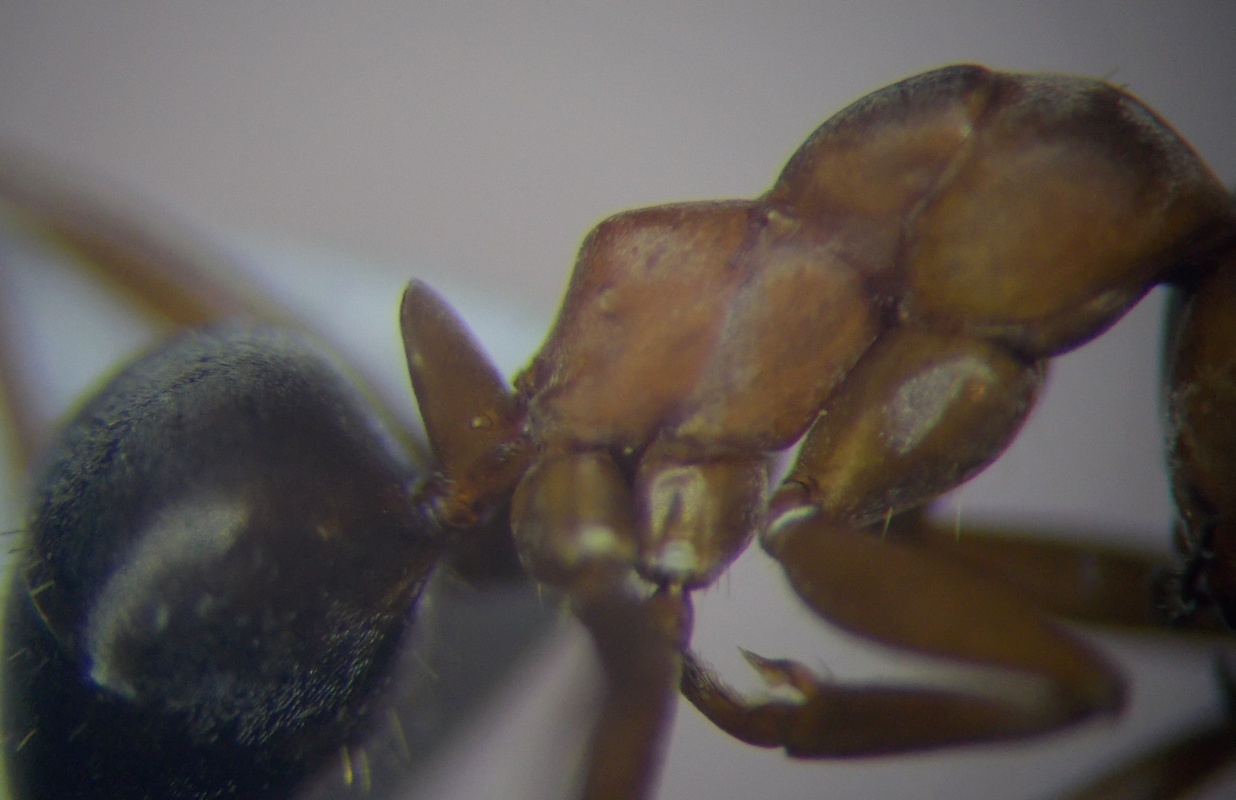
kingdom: Animalia
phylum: Arthropoda
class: Insecta
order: Hymenoptera
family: Formicidae
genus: Formica
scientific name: Formica clara
